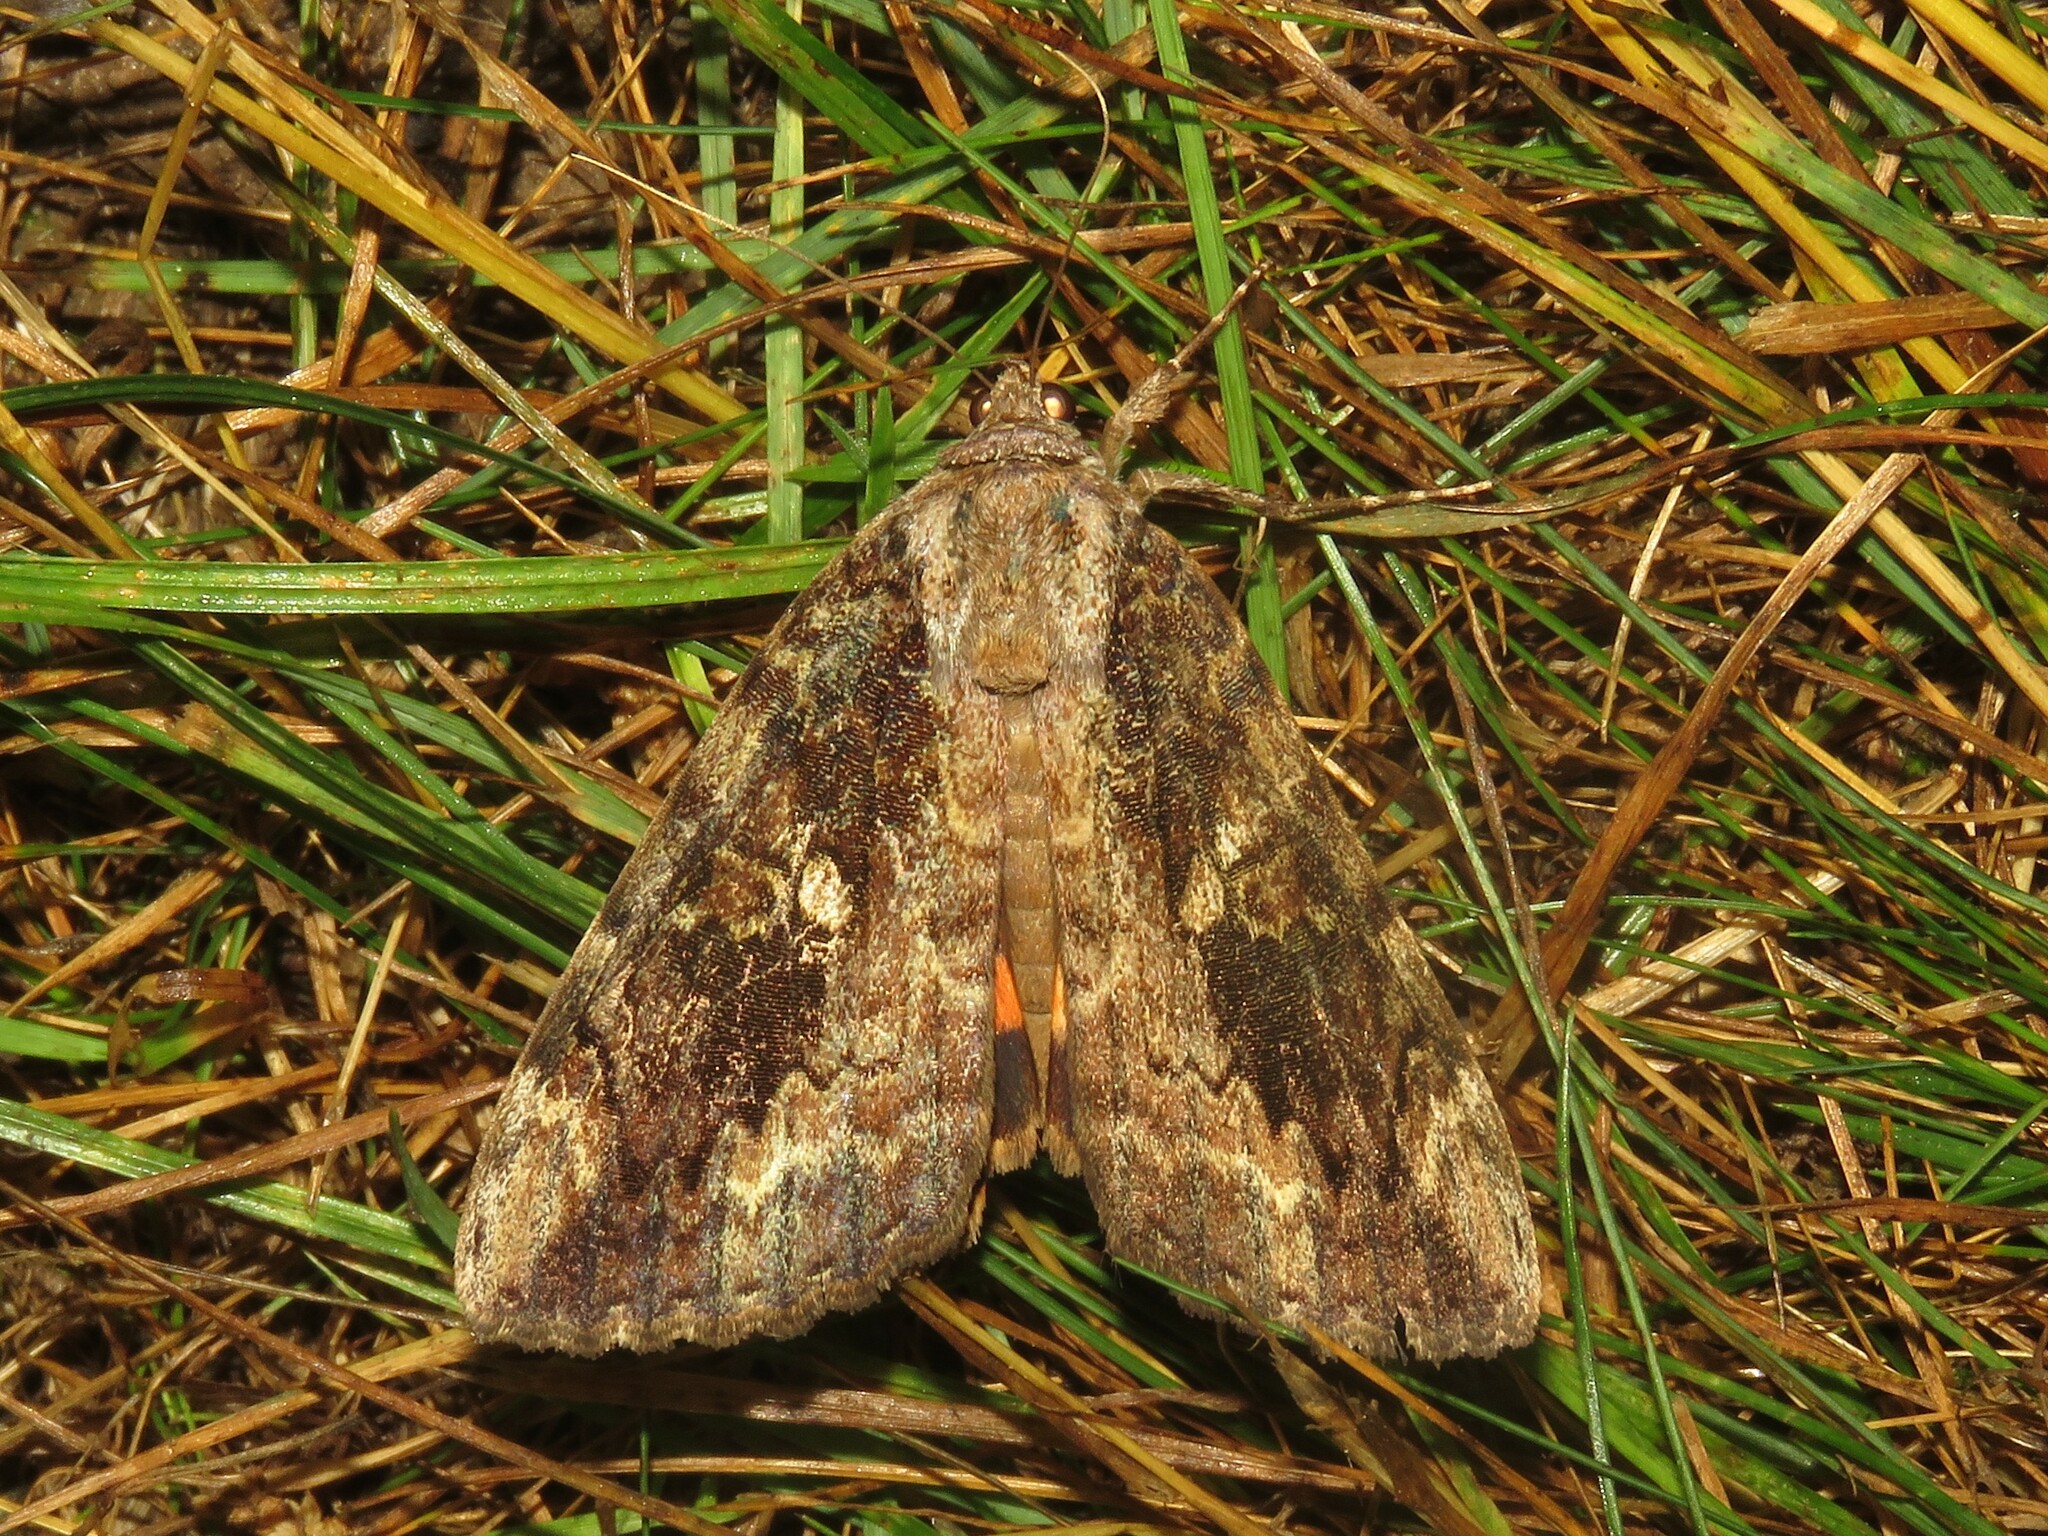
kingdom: Animalia
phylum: Arthropoda
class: Insecta
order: Lepidoptera
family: Erebidae
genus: Catocala
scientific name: Catocala innubens
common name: Betrothed underwing
